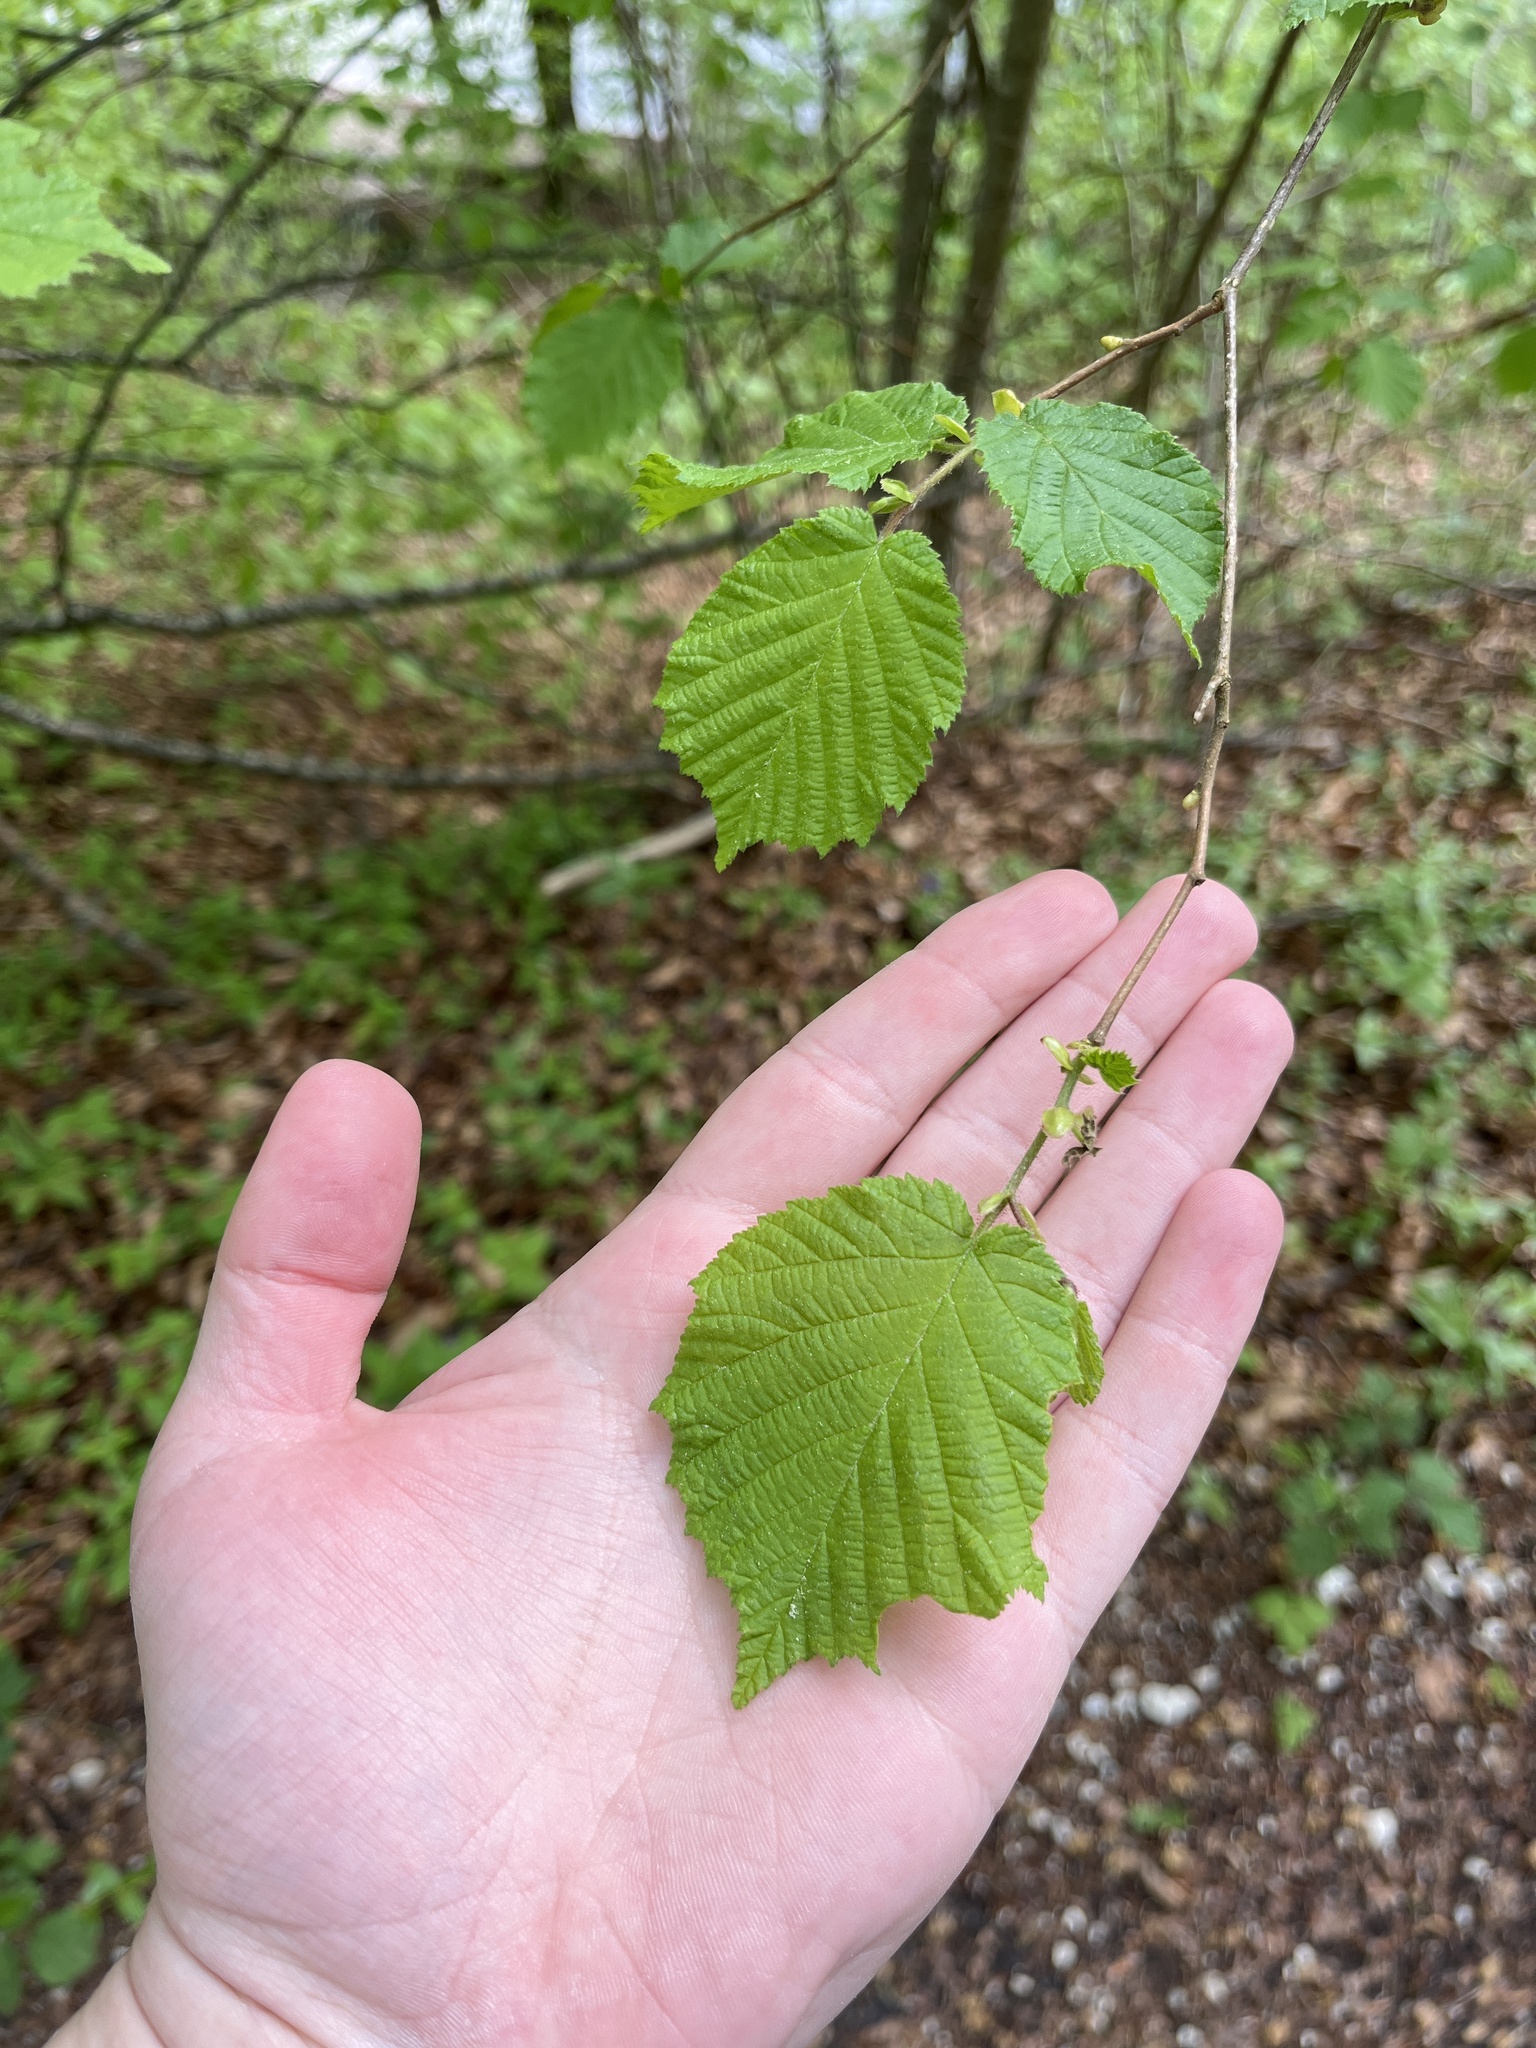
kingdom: Plantae
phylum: Tracheophyta
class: Magnoliopsida
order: Fagales
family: Betulaceae
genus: Corylus
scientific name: Corylus avellana
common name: European hazel
